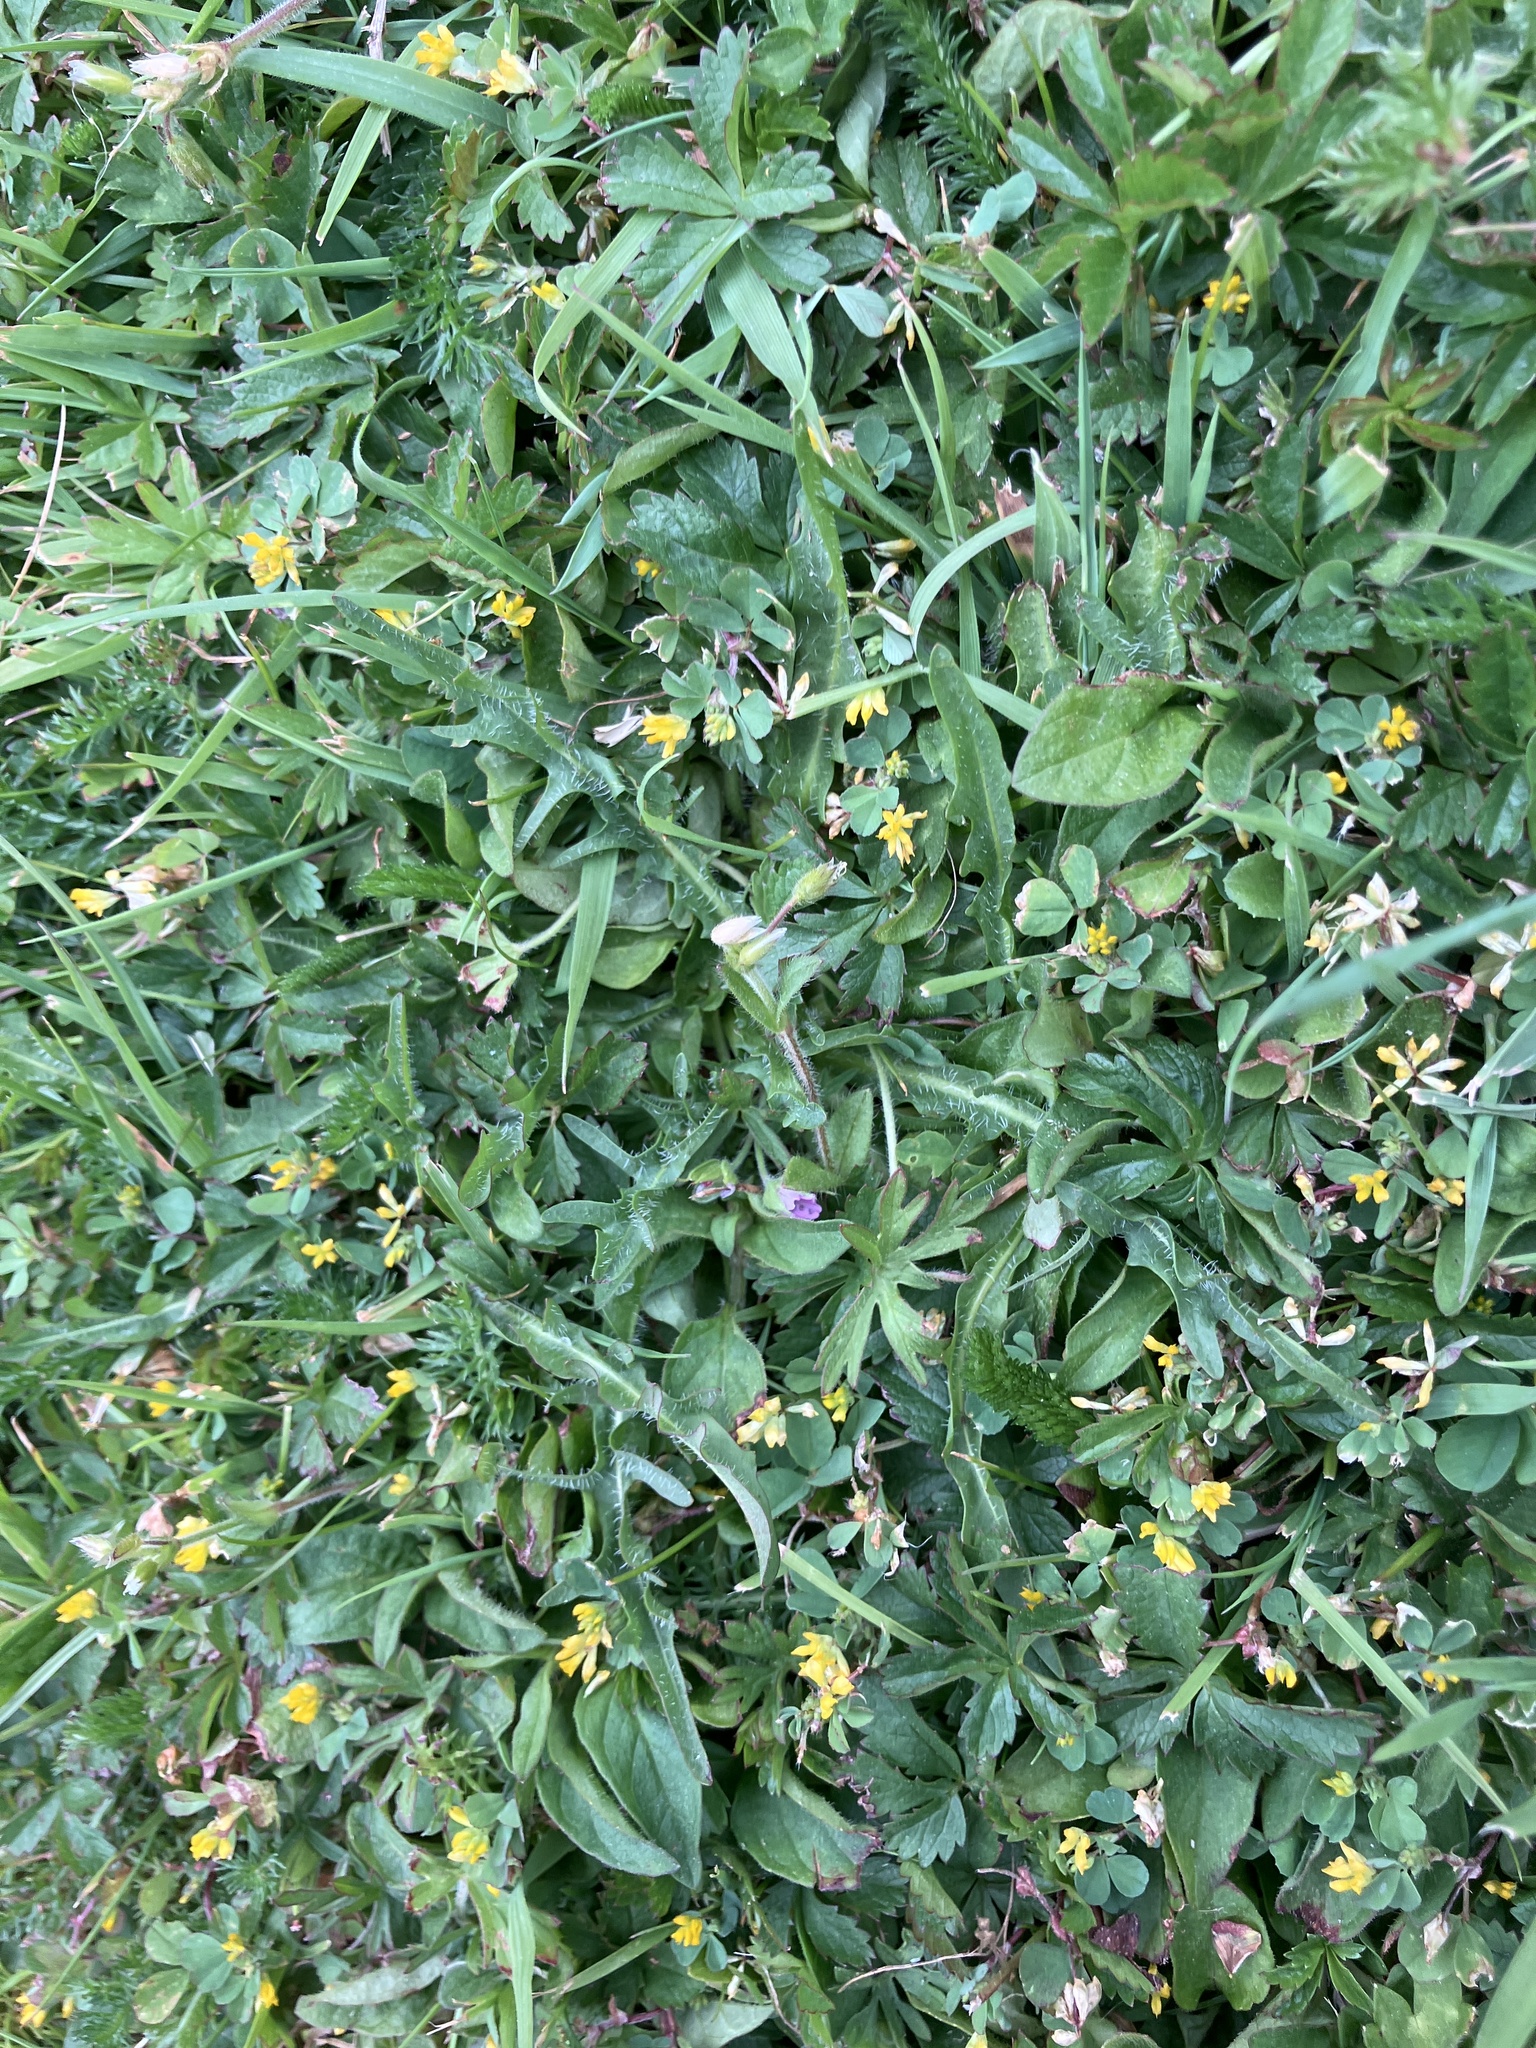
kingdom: Plantae
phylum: Tracheophyta
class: Magnoliopsida
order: Fabales
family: Fabaceae
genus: Trifolium
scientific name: Trifolium dubium
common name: Suckling clover
